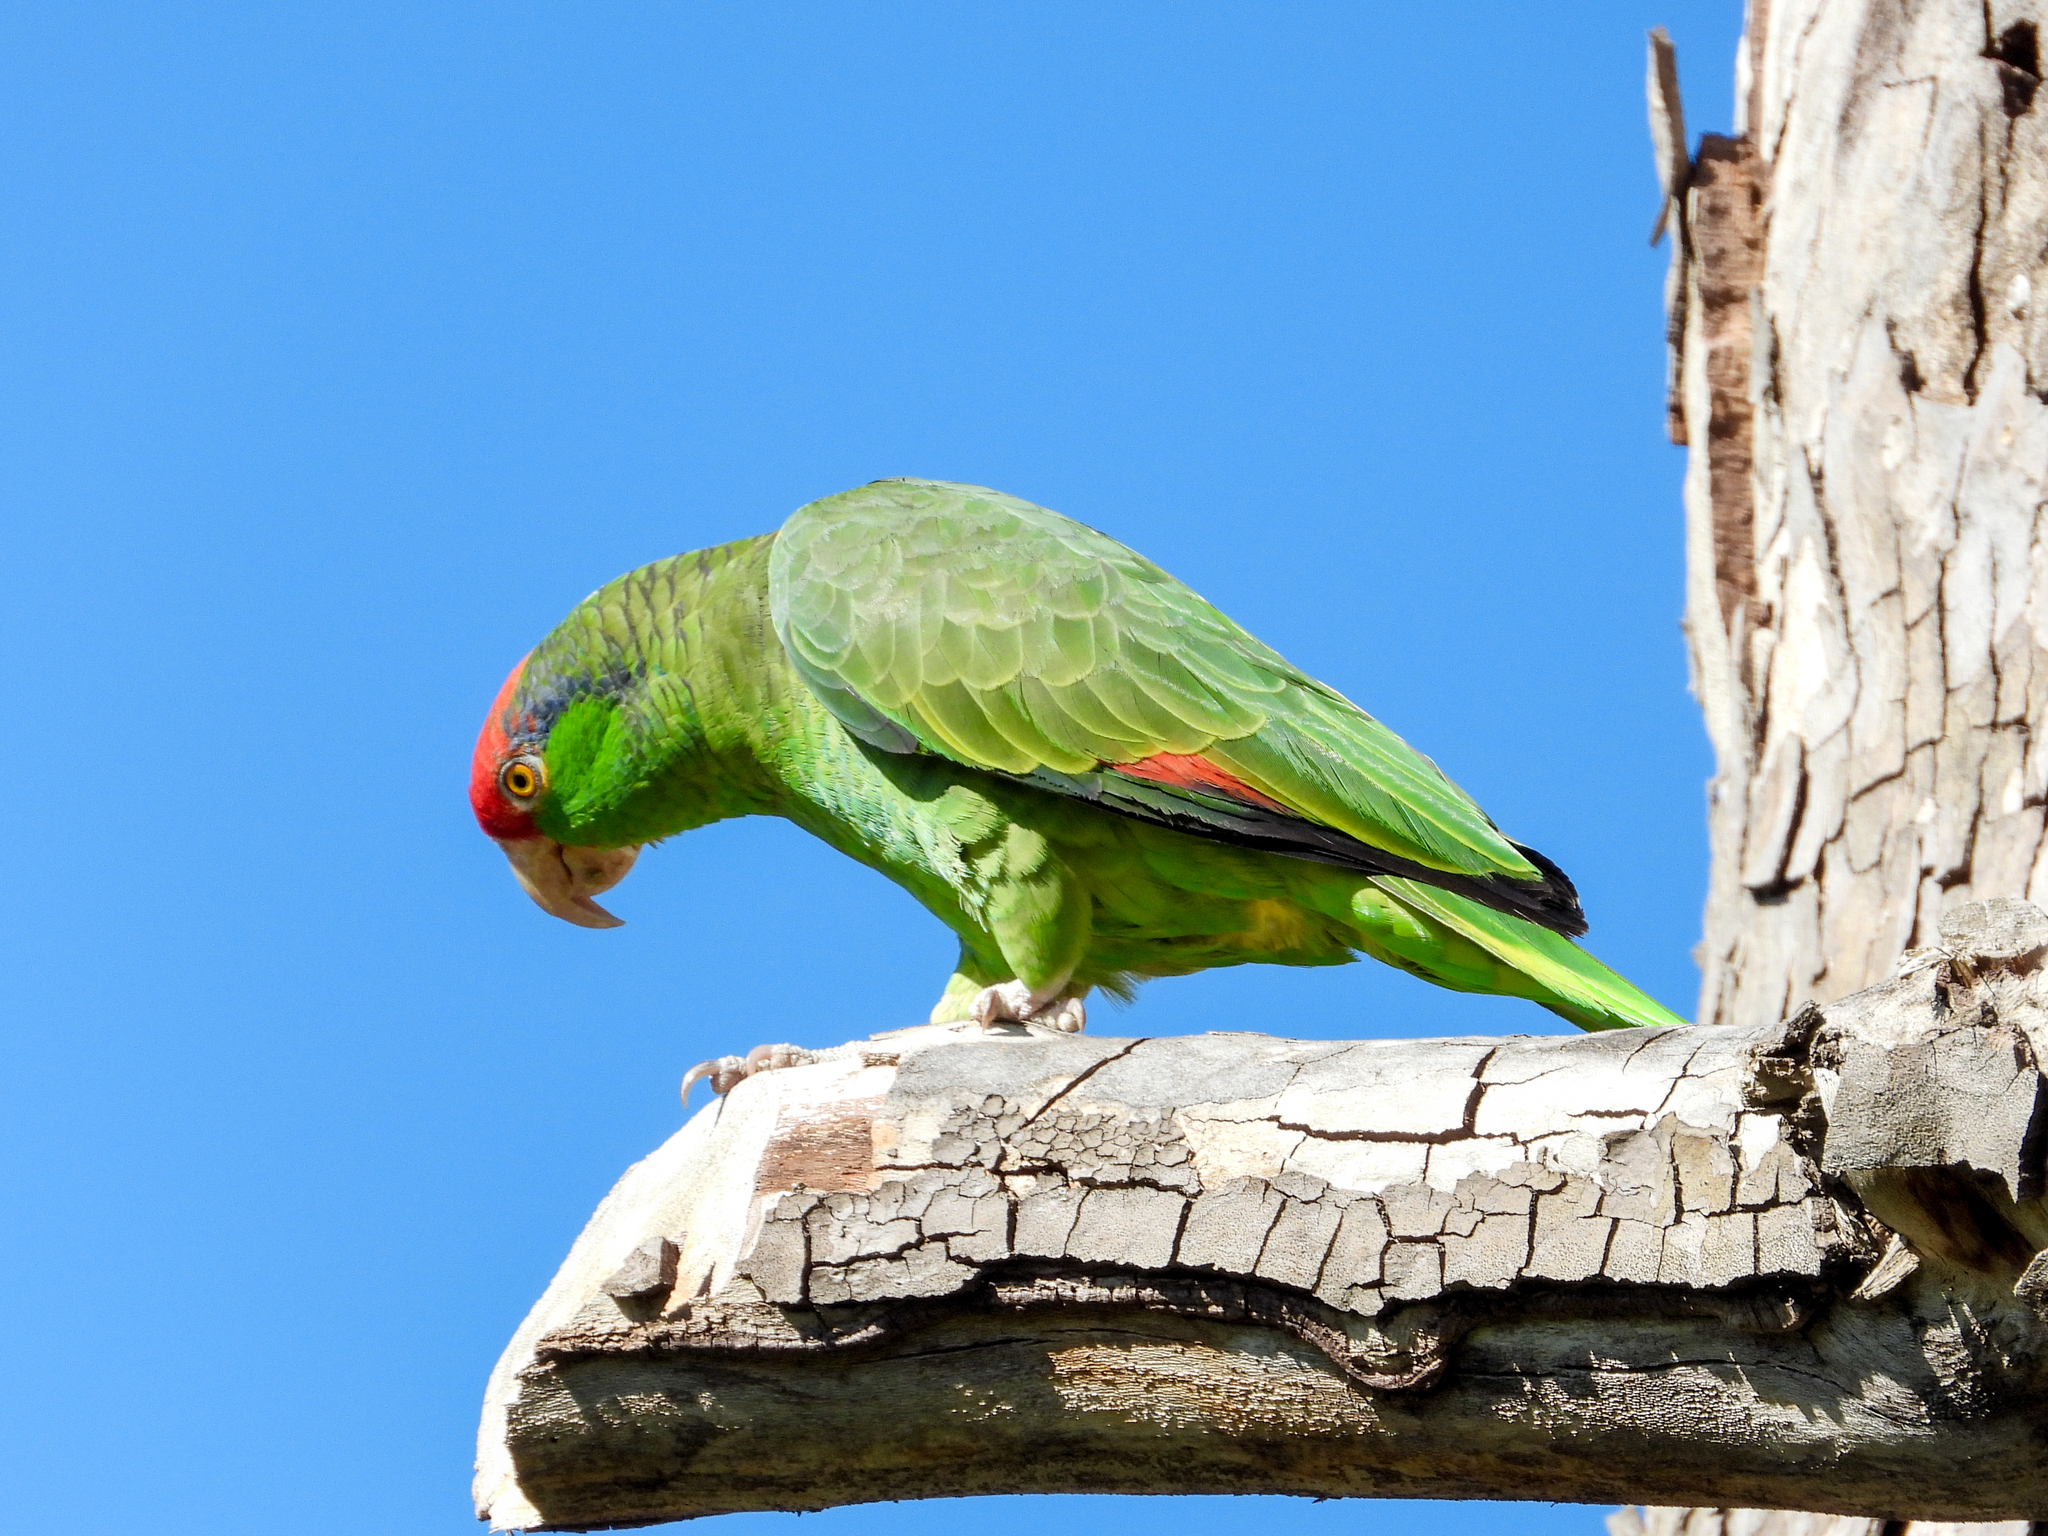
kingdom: Animalia
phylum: Chordata
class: Aves
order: Psittaciformes
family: Psittacidae
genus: Amazona
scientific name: Amazona viridigenalis
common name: Red-crowned amazon
